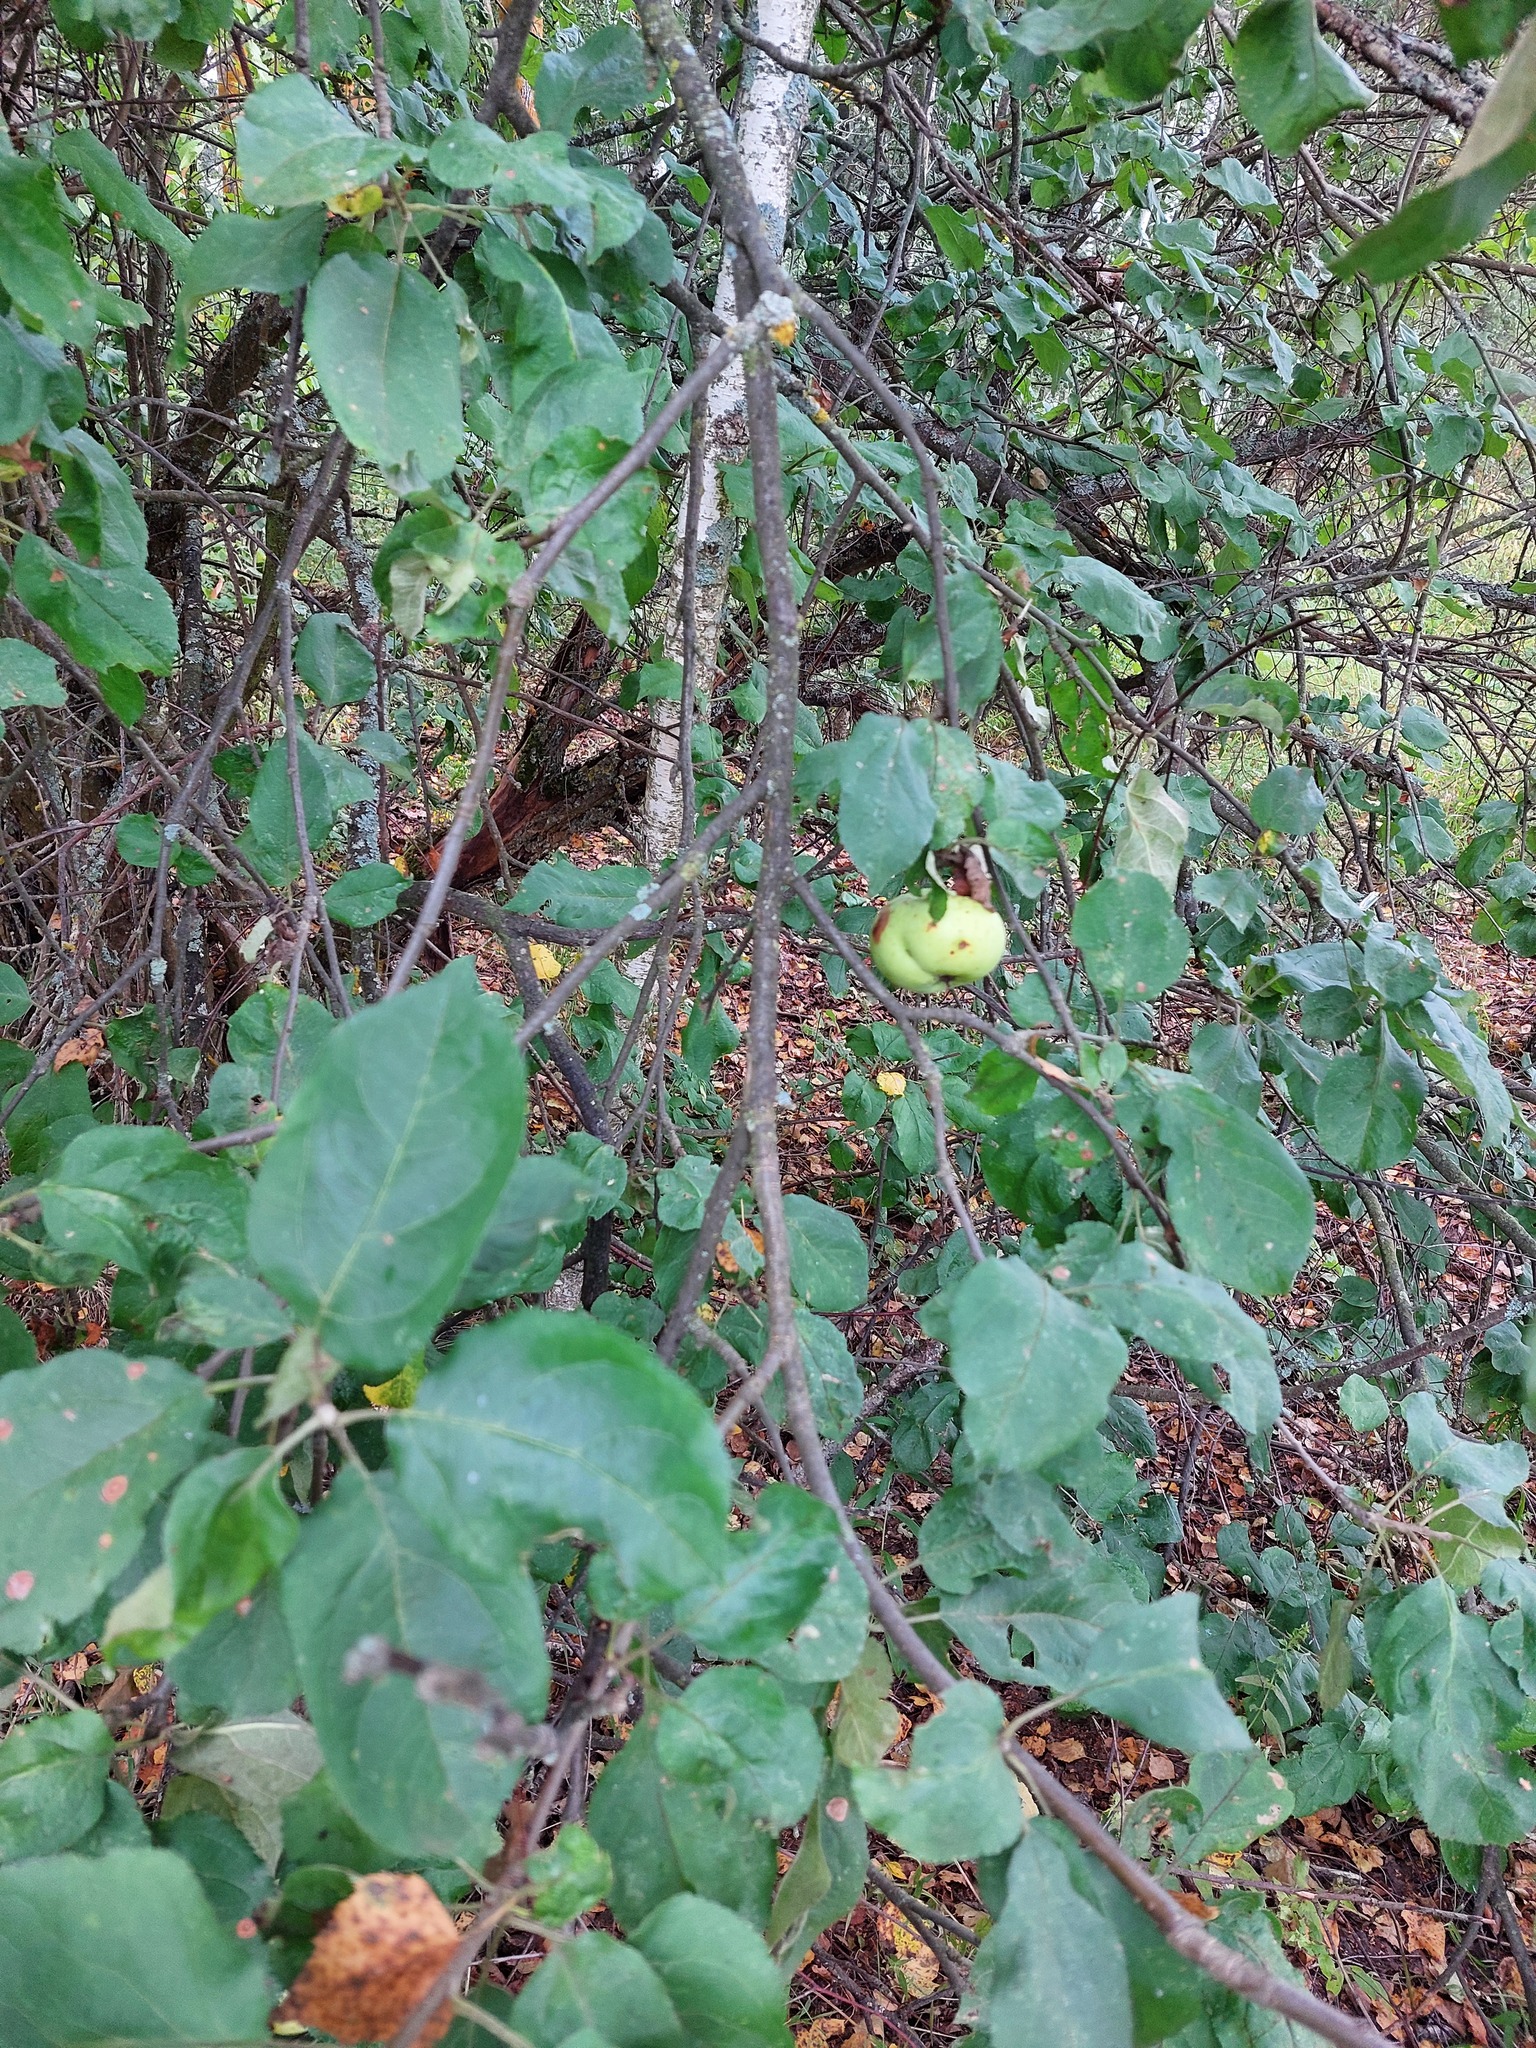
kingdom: Plantae
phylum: Tracheophyta
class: Magnoliopsida
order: Rosales
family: Rosaceae
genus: Malus
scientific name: Malus domestica
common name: Apple
